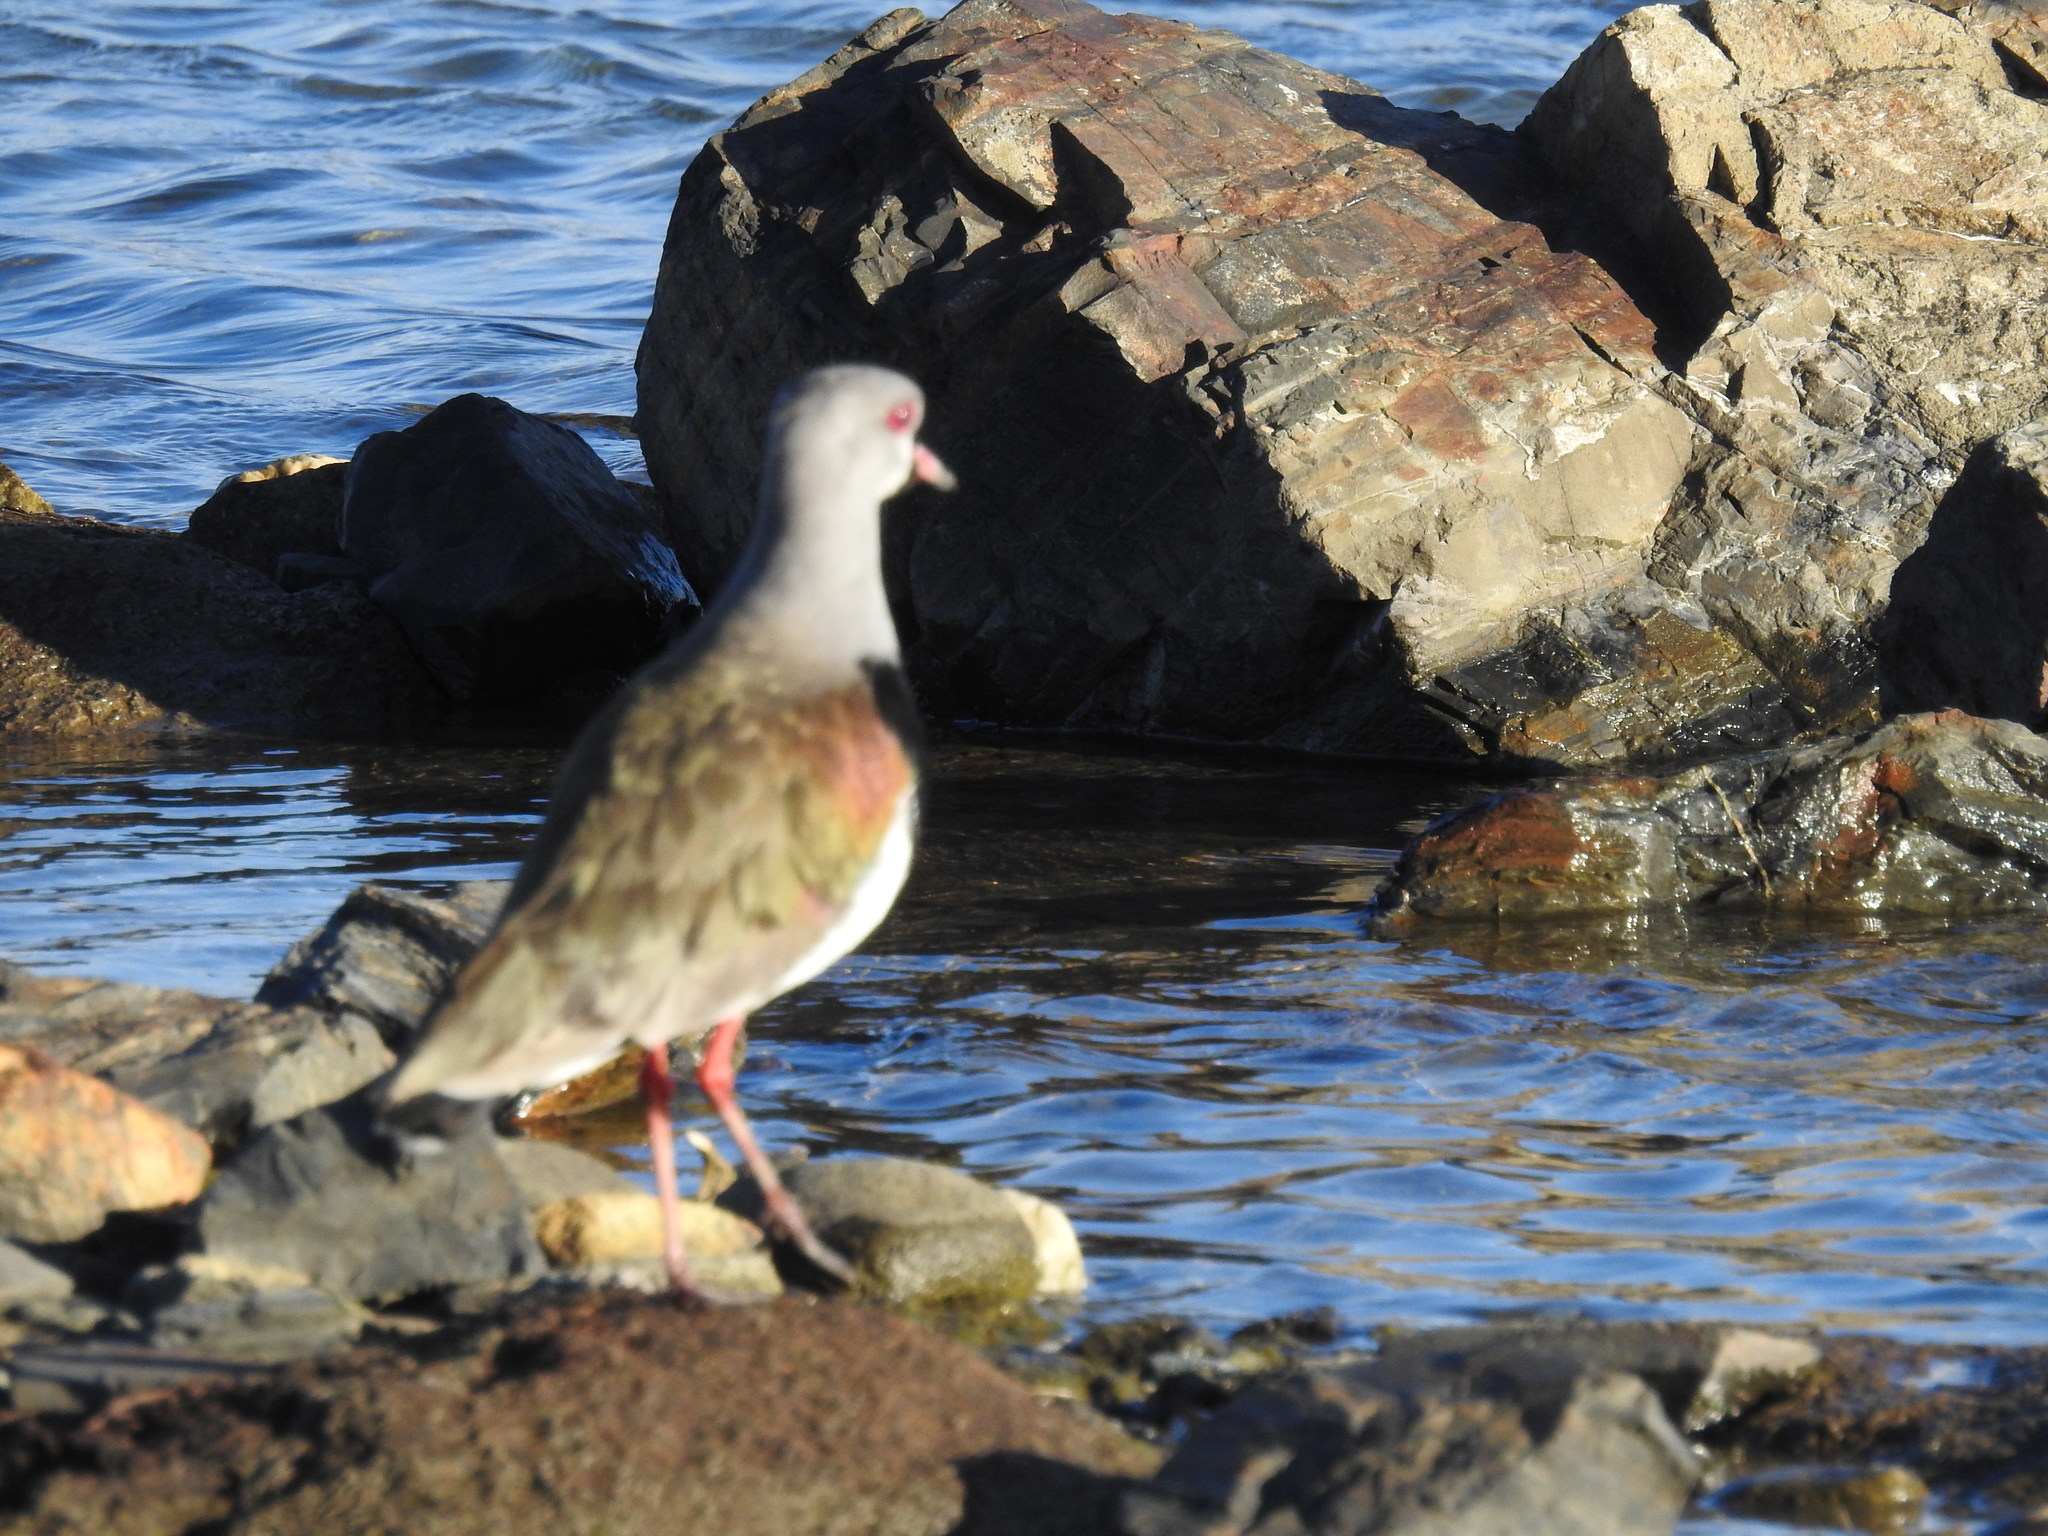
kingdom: Animalia
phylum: Chordata
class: Aves
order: Charadriiformes
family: Charadriidae
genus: Vanellus
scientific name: Vanellus chilensis
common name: Southern lapwing
